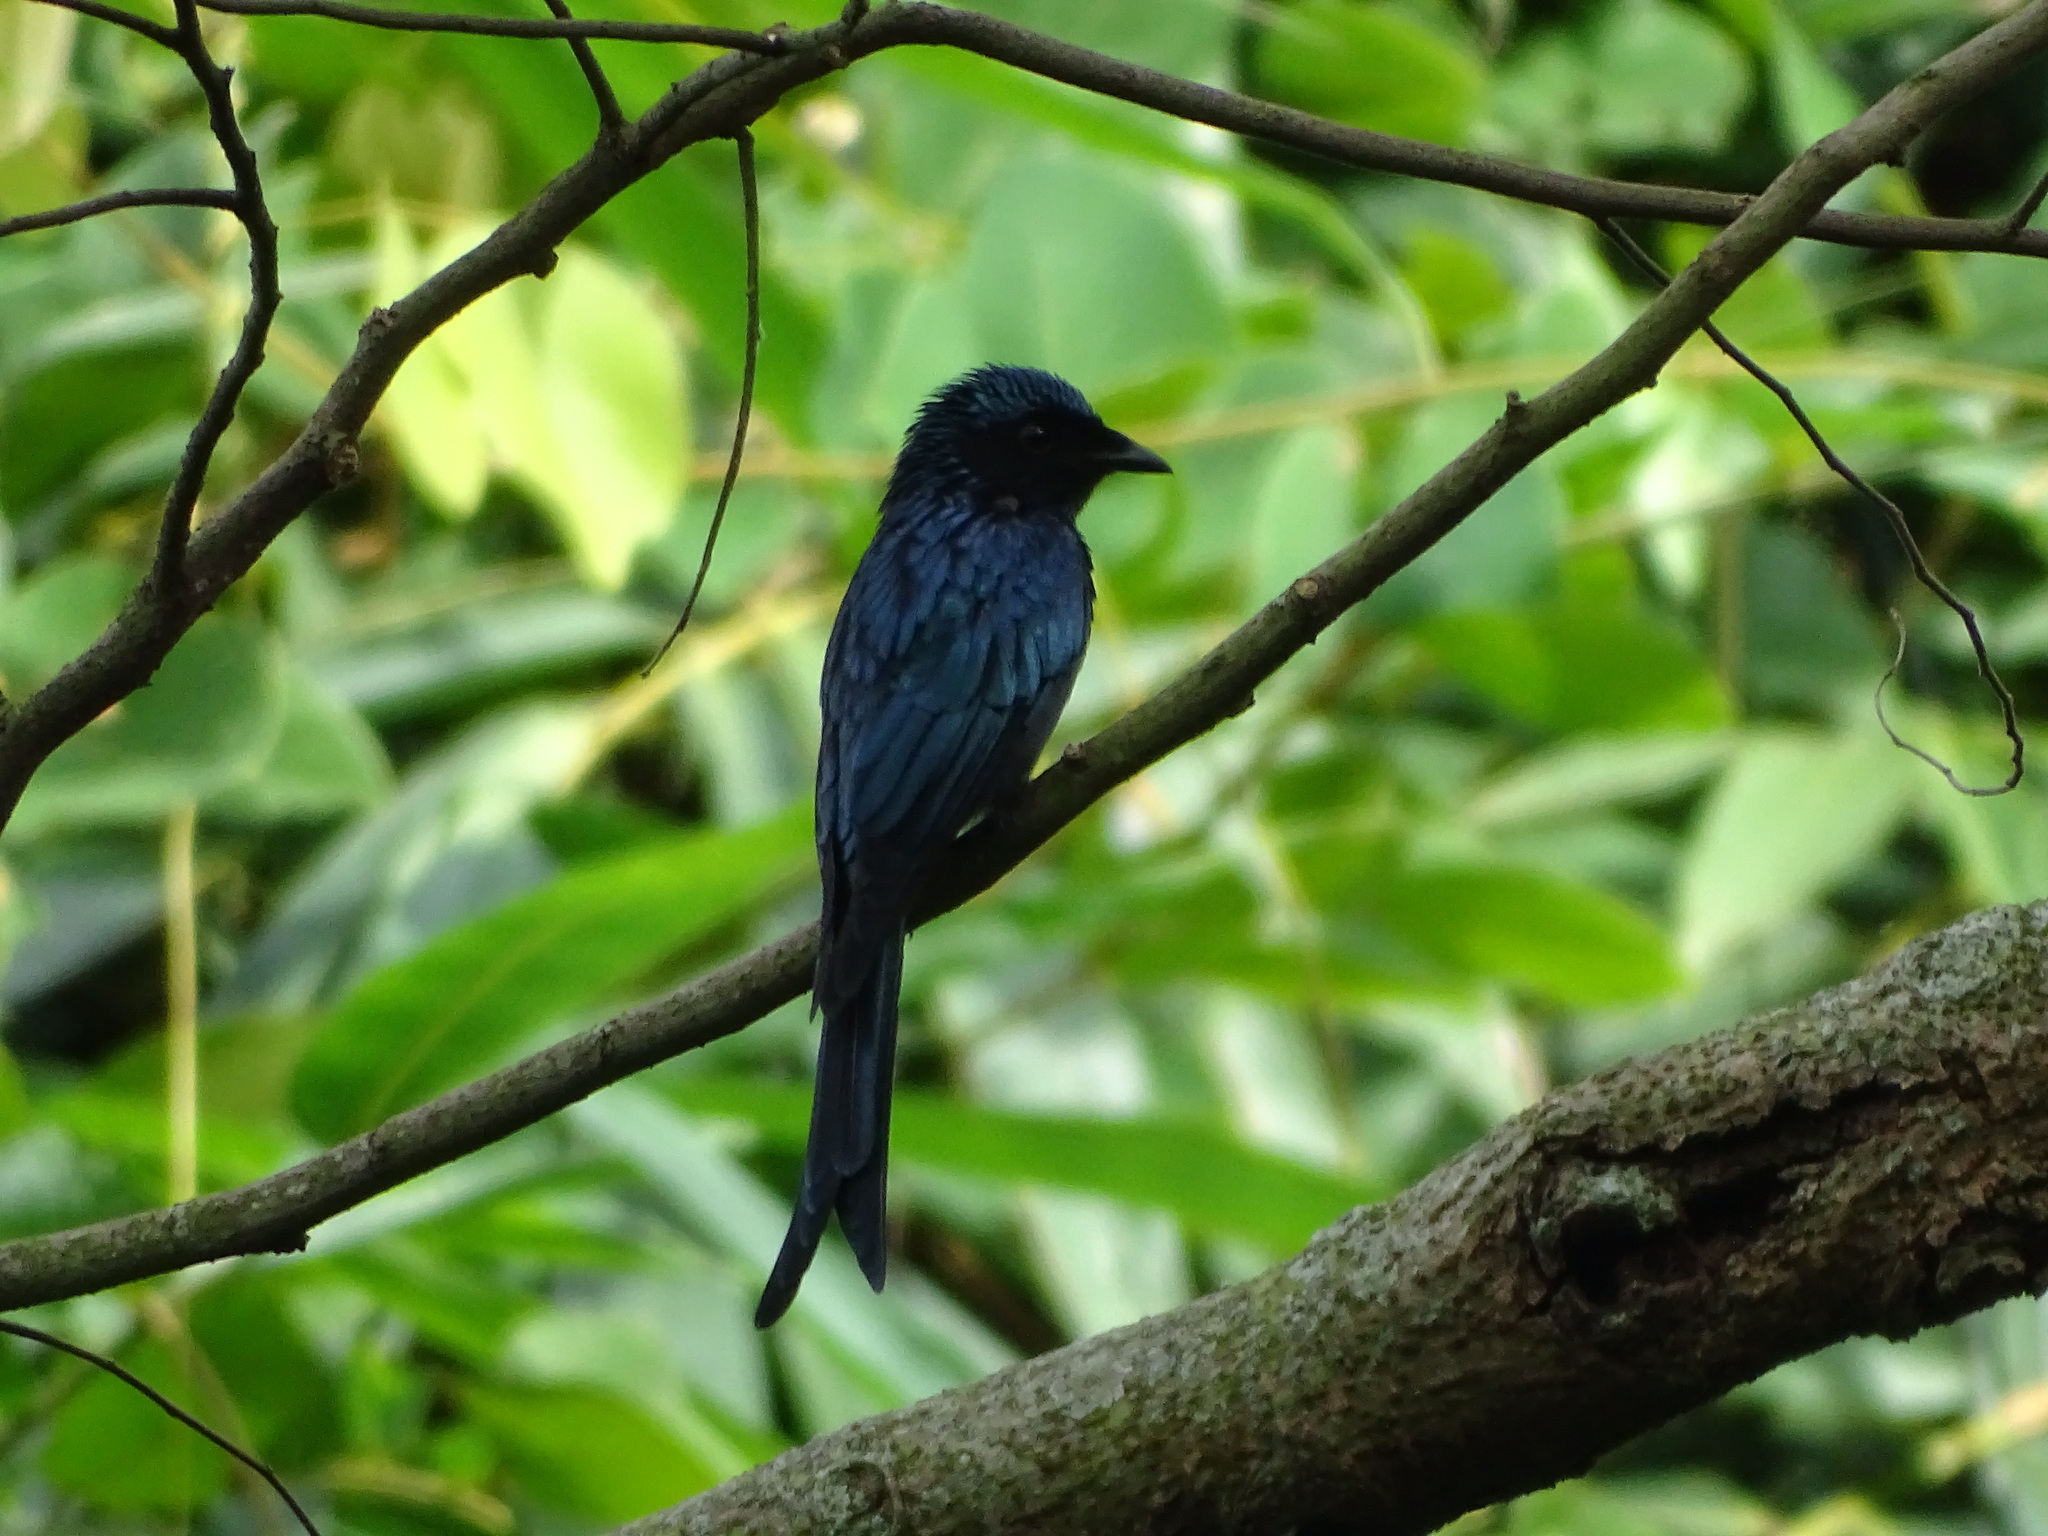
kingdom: Animalia
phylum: Chordata
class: Aves
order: Passeriformes
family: Dicruridae
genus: Dicrurus
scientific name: Dicrurus aeneus
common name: Bronzed drongo
